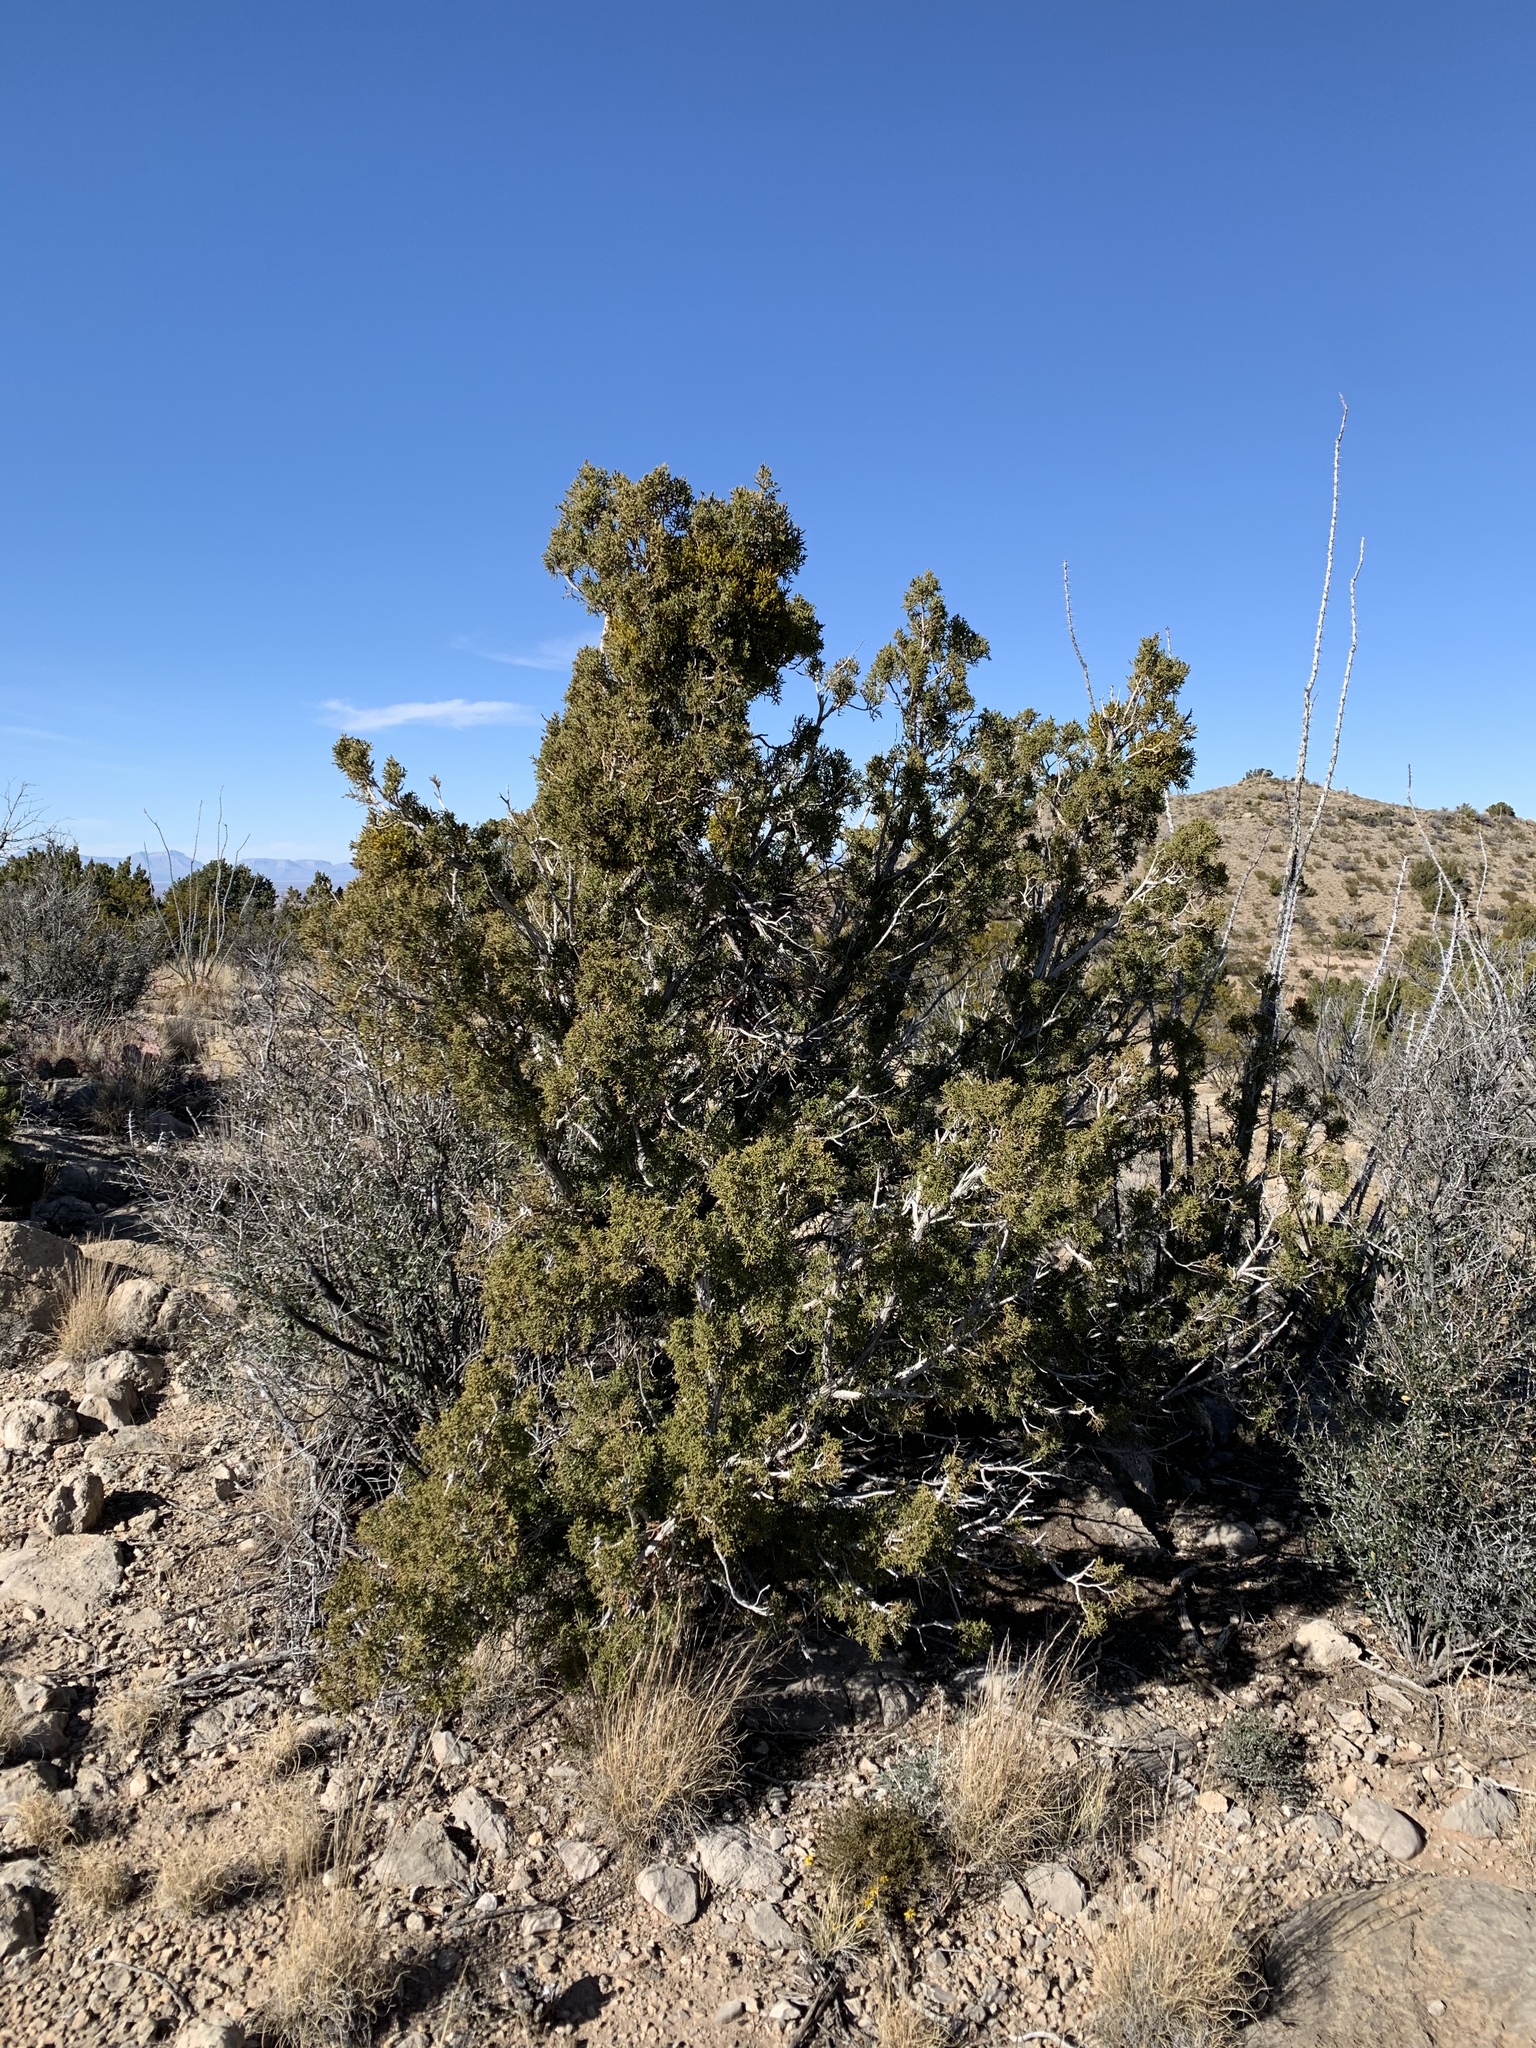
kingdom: Plantae
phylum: Tracheophyta
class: Pinopsida
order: Pinales
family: Cupressaceae
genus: Juniperus
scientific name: Juniperus monosperma
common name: One-seed juniper
